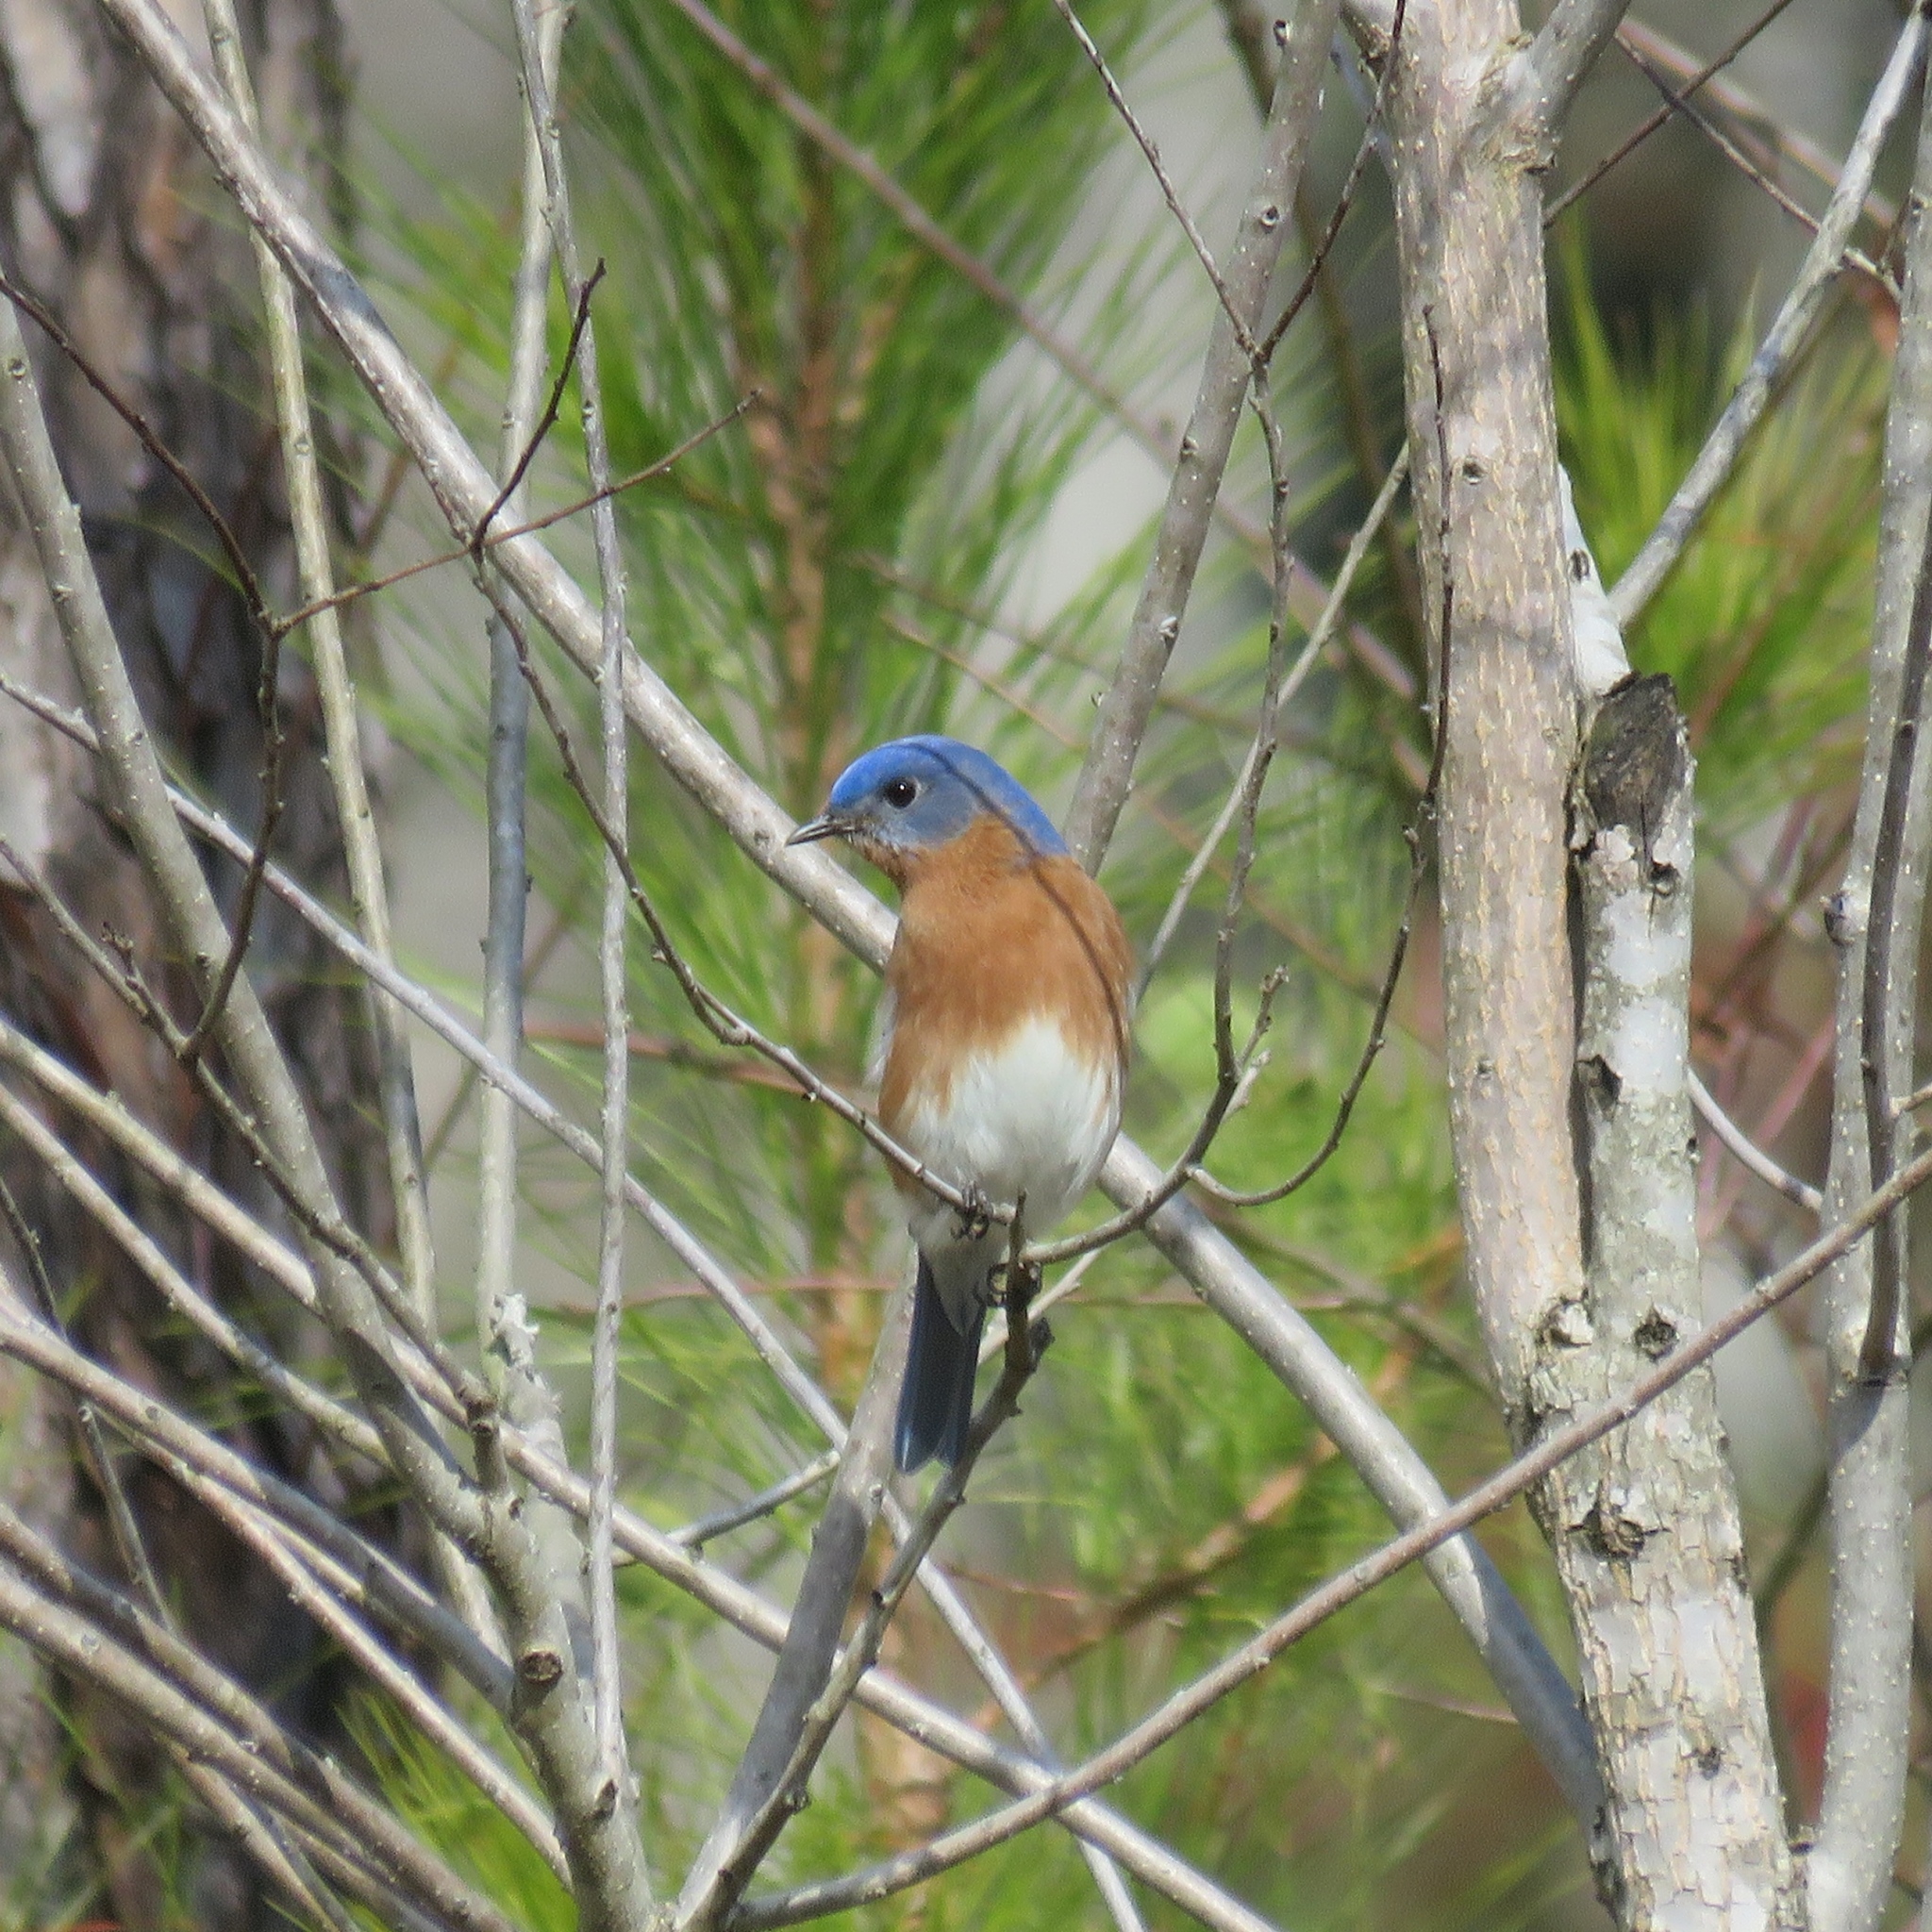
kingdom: Animalia
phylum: Chordata
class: Aves
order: Passeriformes
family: Turdidae
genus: Sialia
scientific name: Sialia sialis
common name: Eastern bluebird
